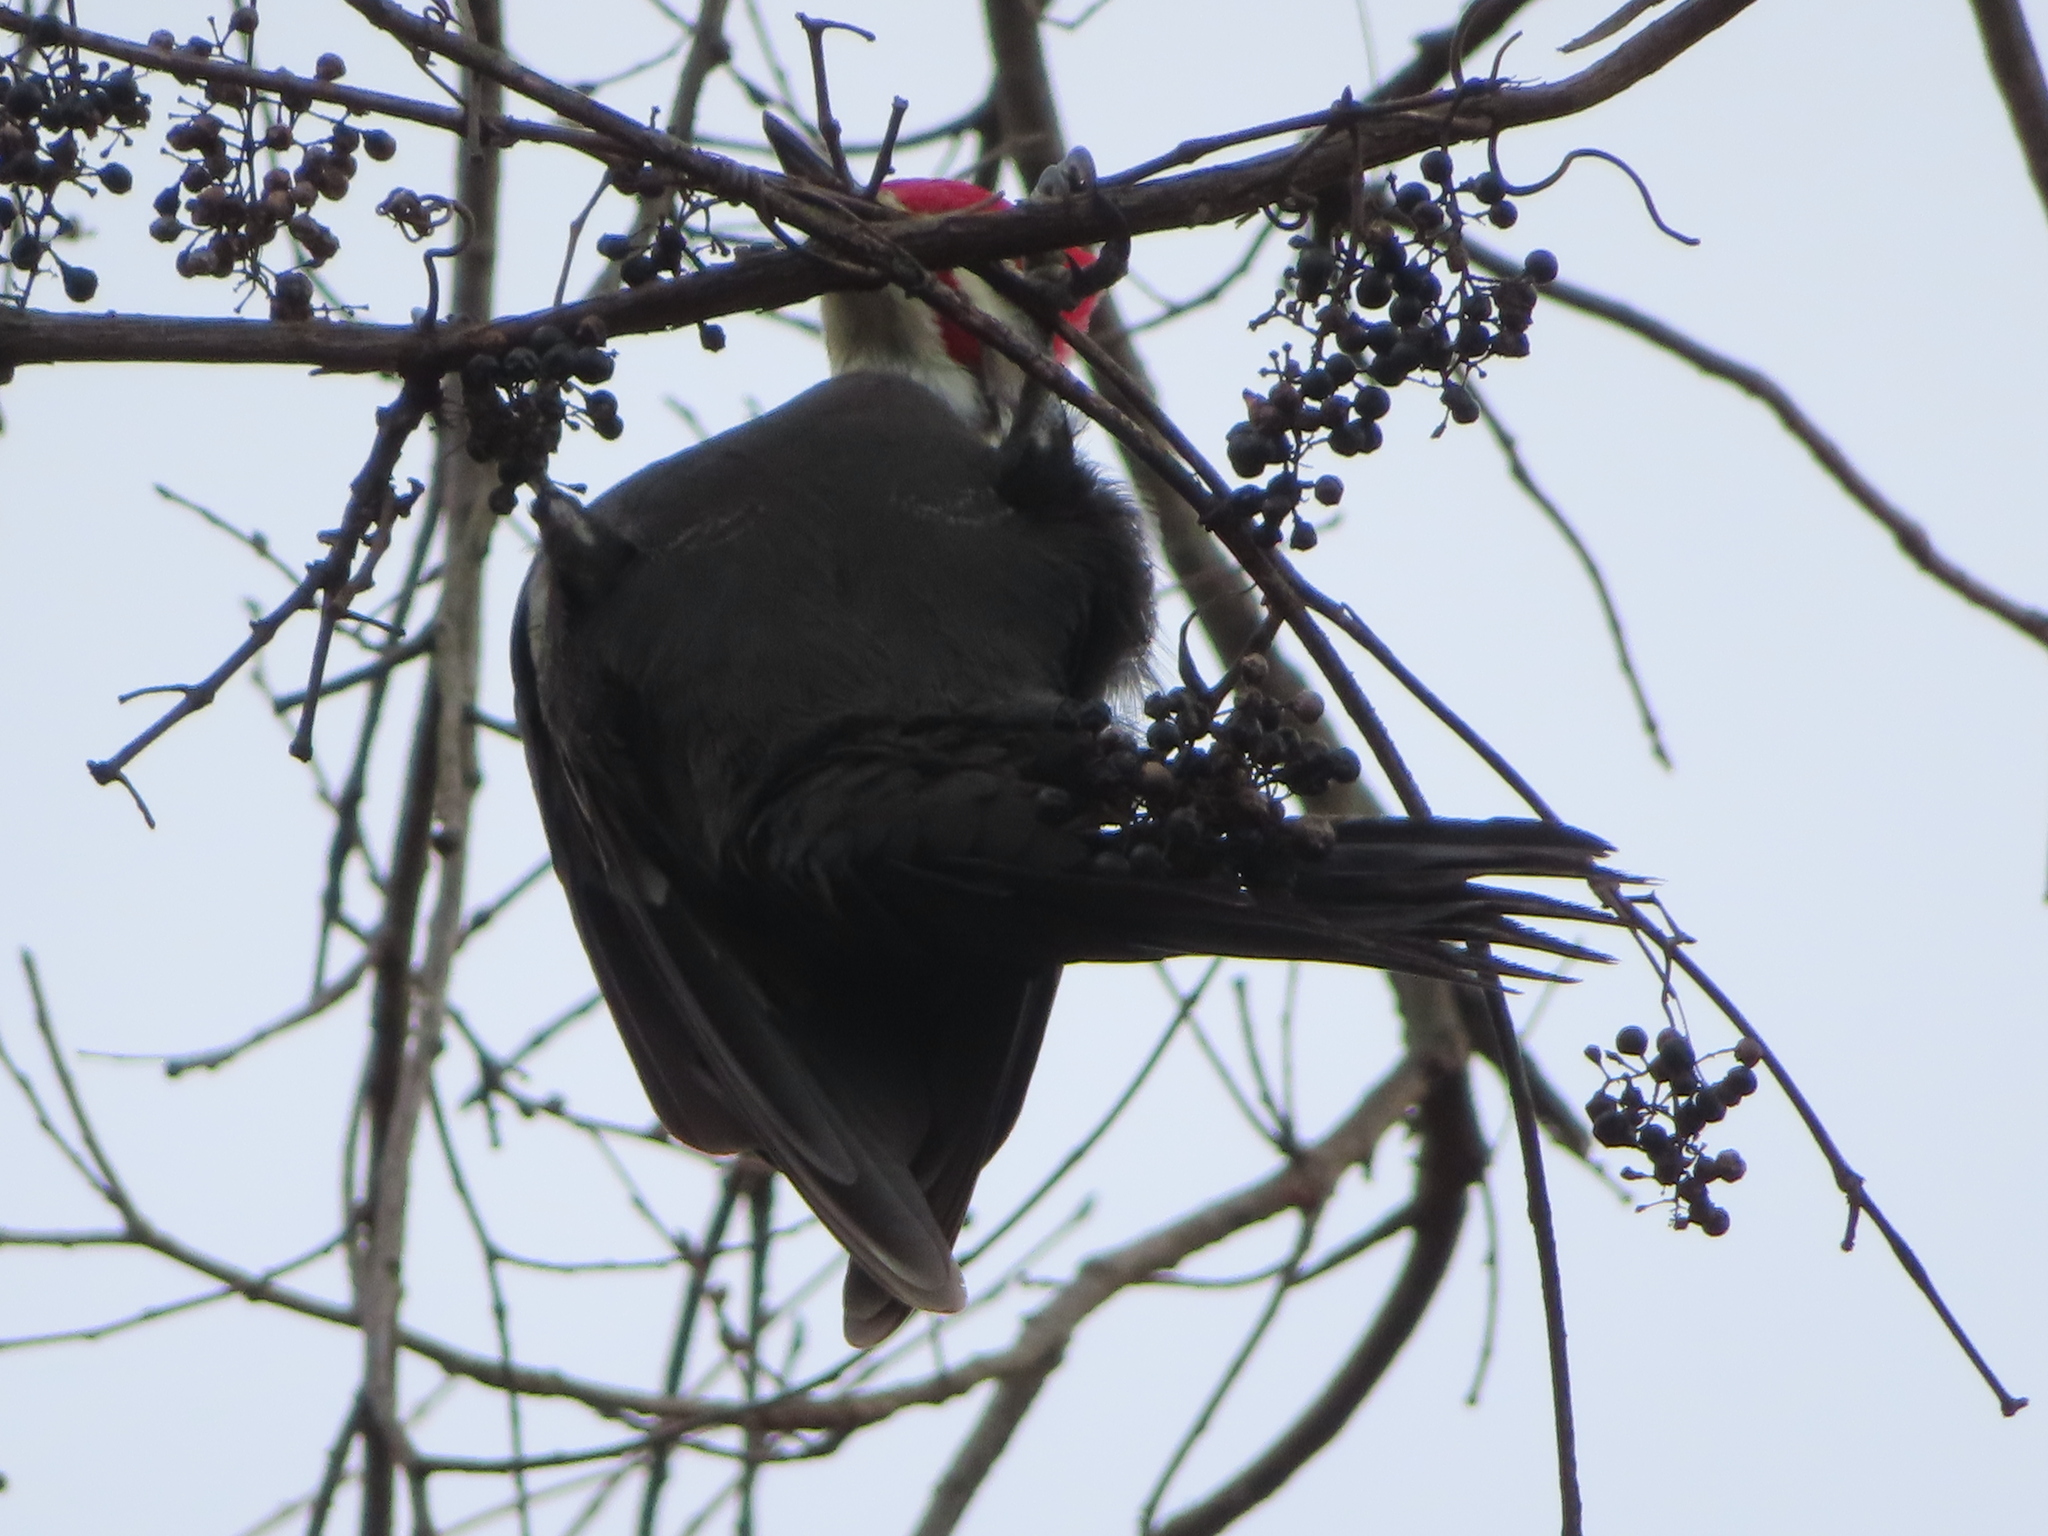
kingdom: Animalia
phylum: Chordata
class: Aves
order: Piciformes
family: Picidae
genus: Dryocopus
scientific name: Dryocopus pileatus
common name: Pileated woodpecker
